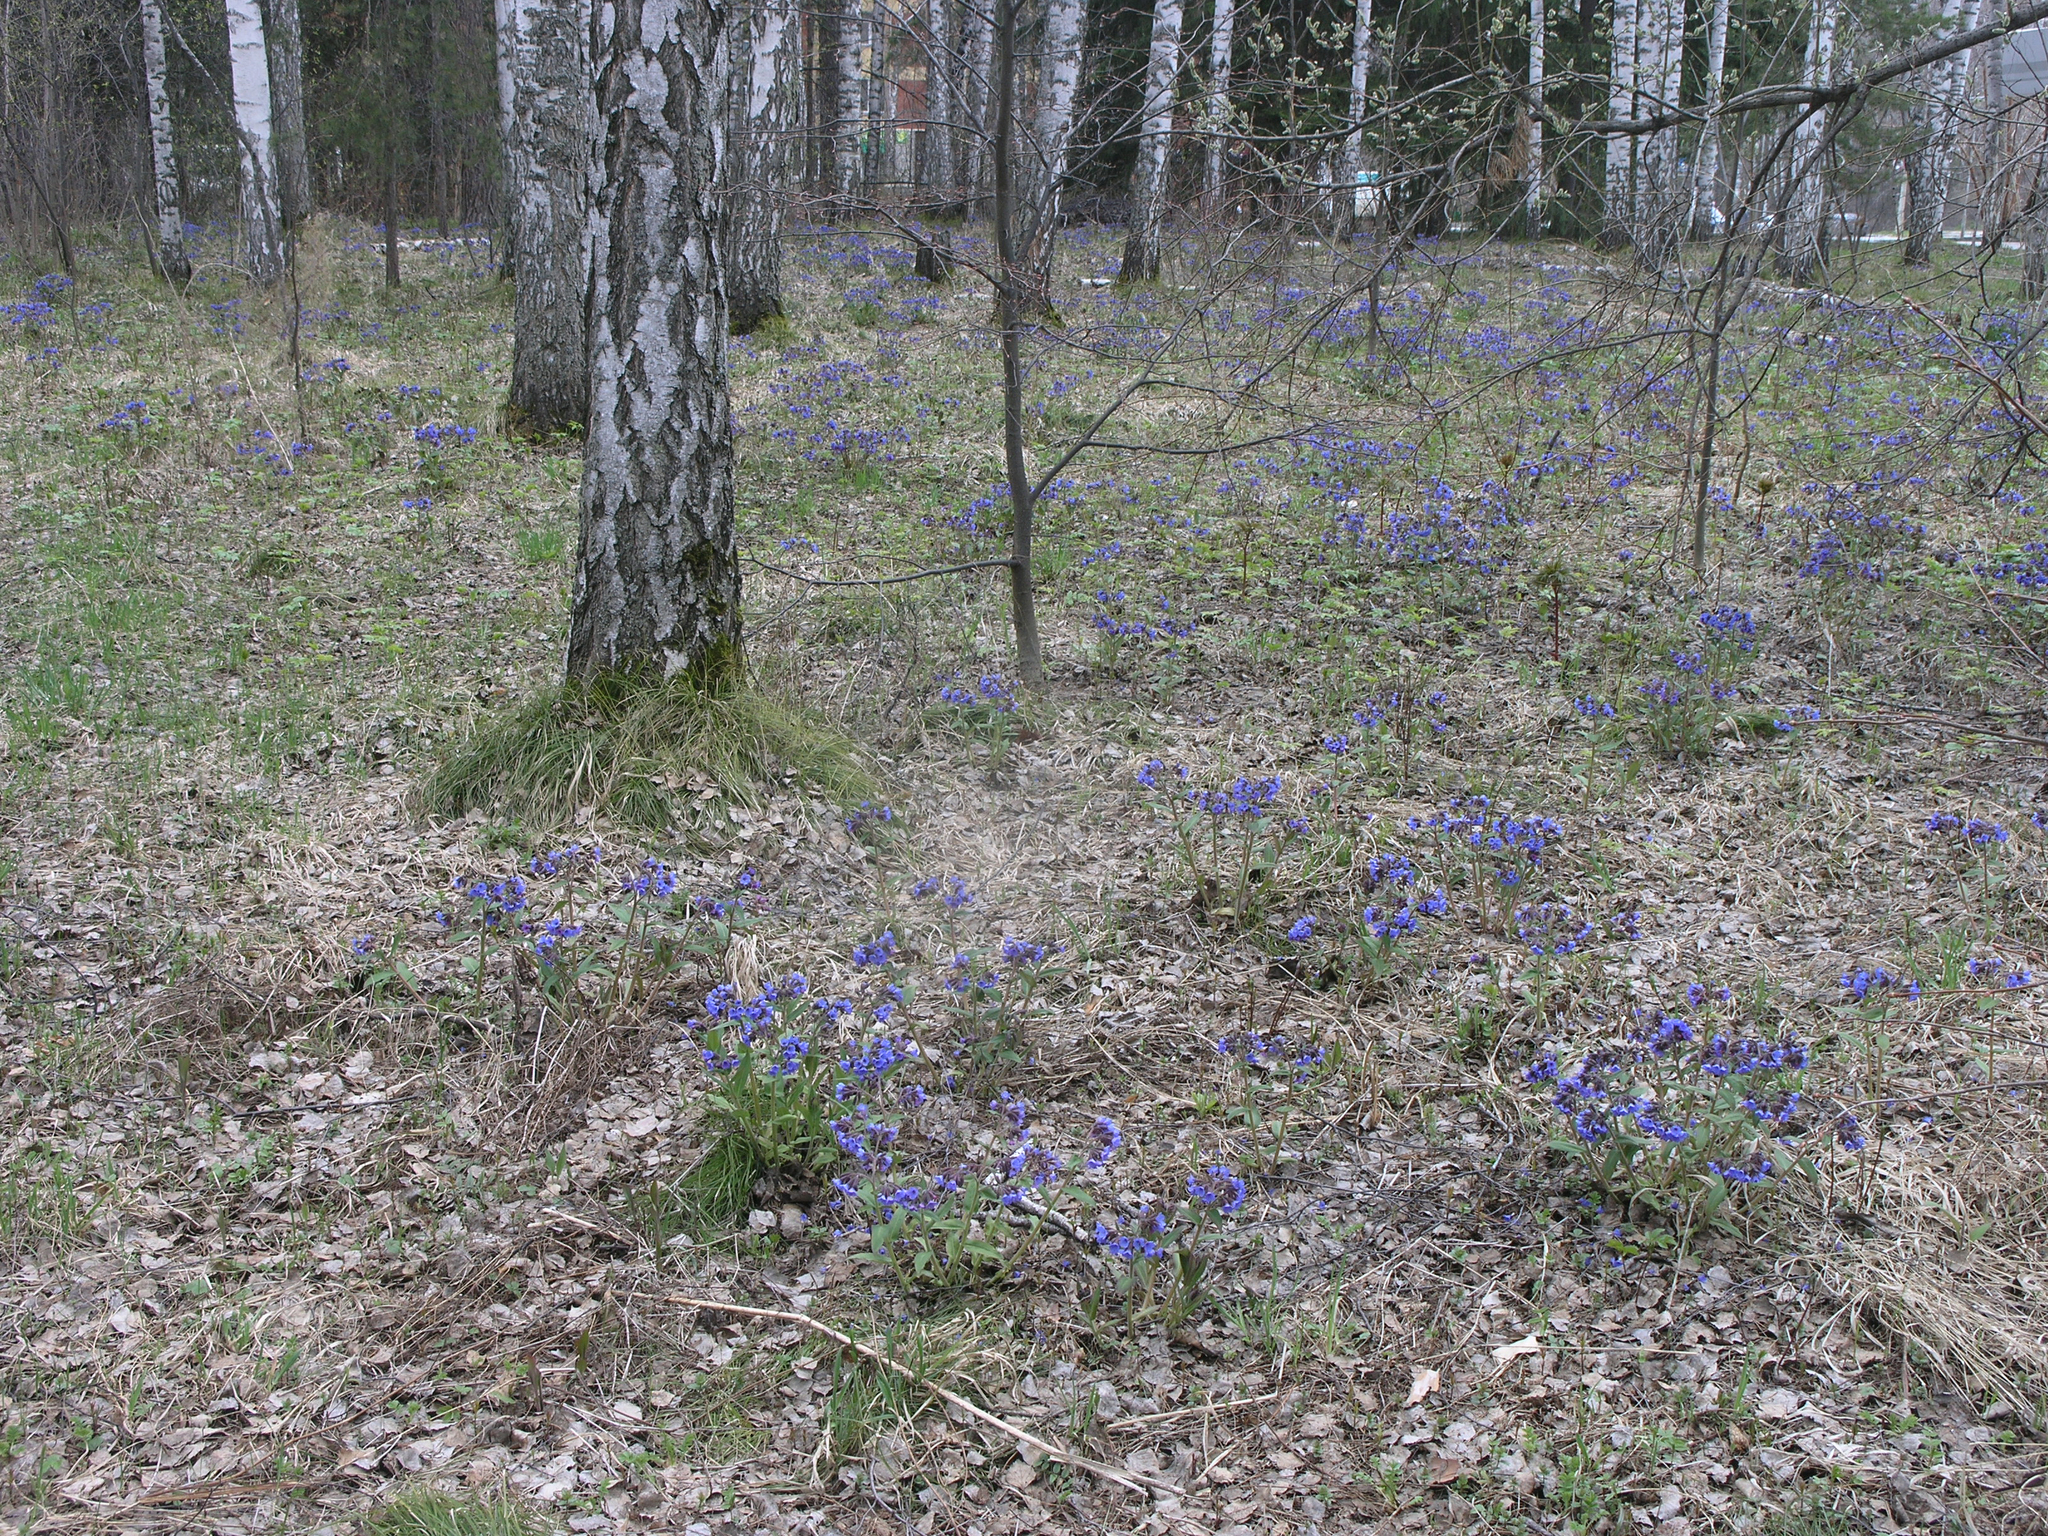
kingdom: Plantae
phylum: Tracheophyta
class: Magnoliopsida
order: Fagales
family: Betulaceae
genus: Betula
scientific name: Betula pendula
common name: Silver birch
